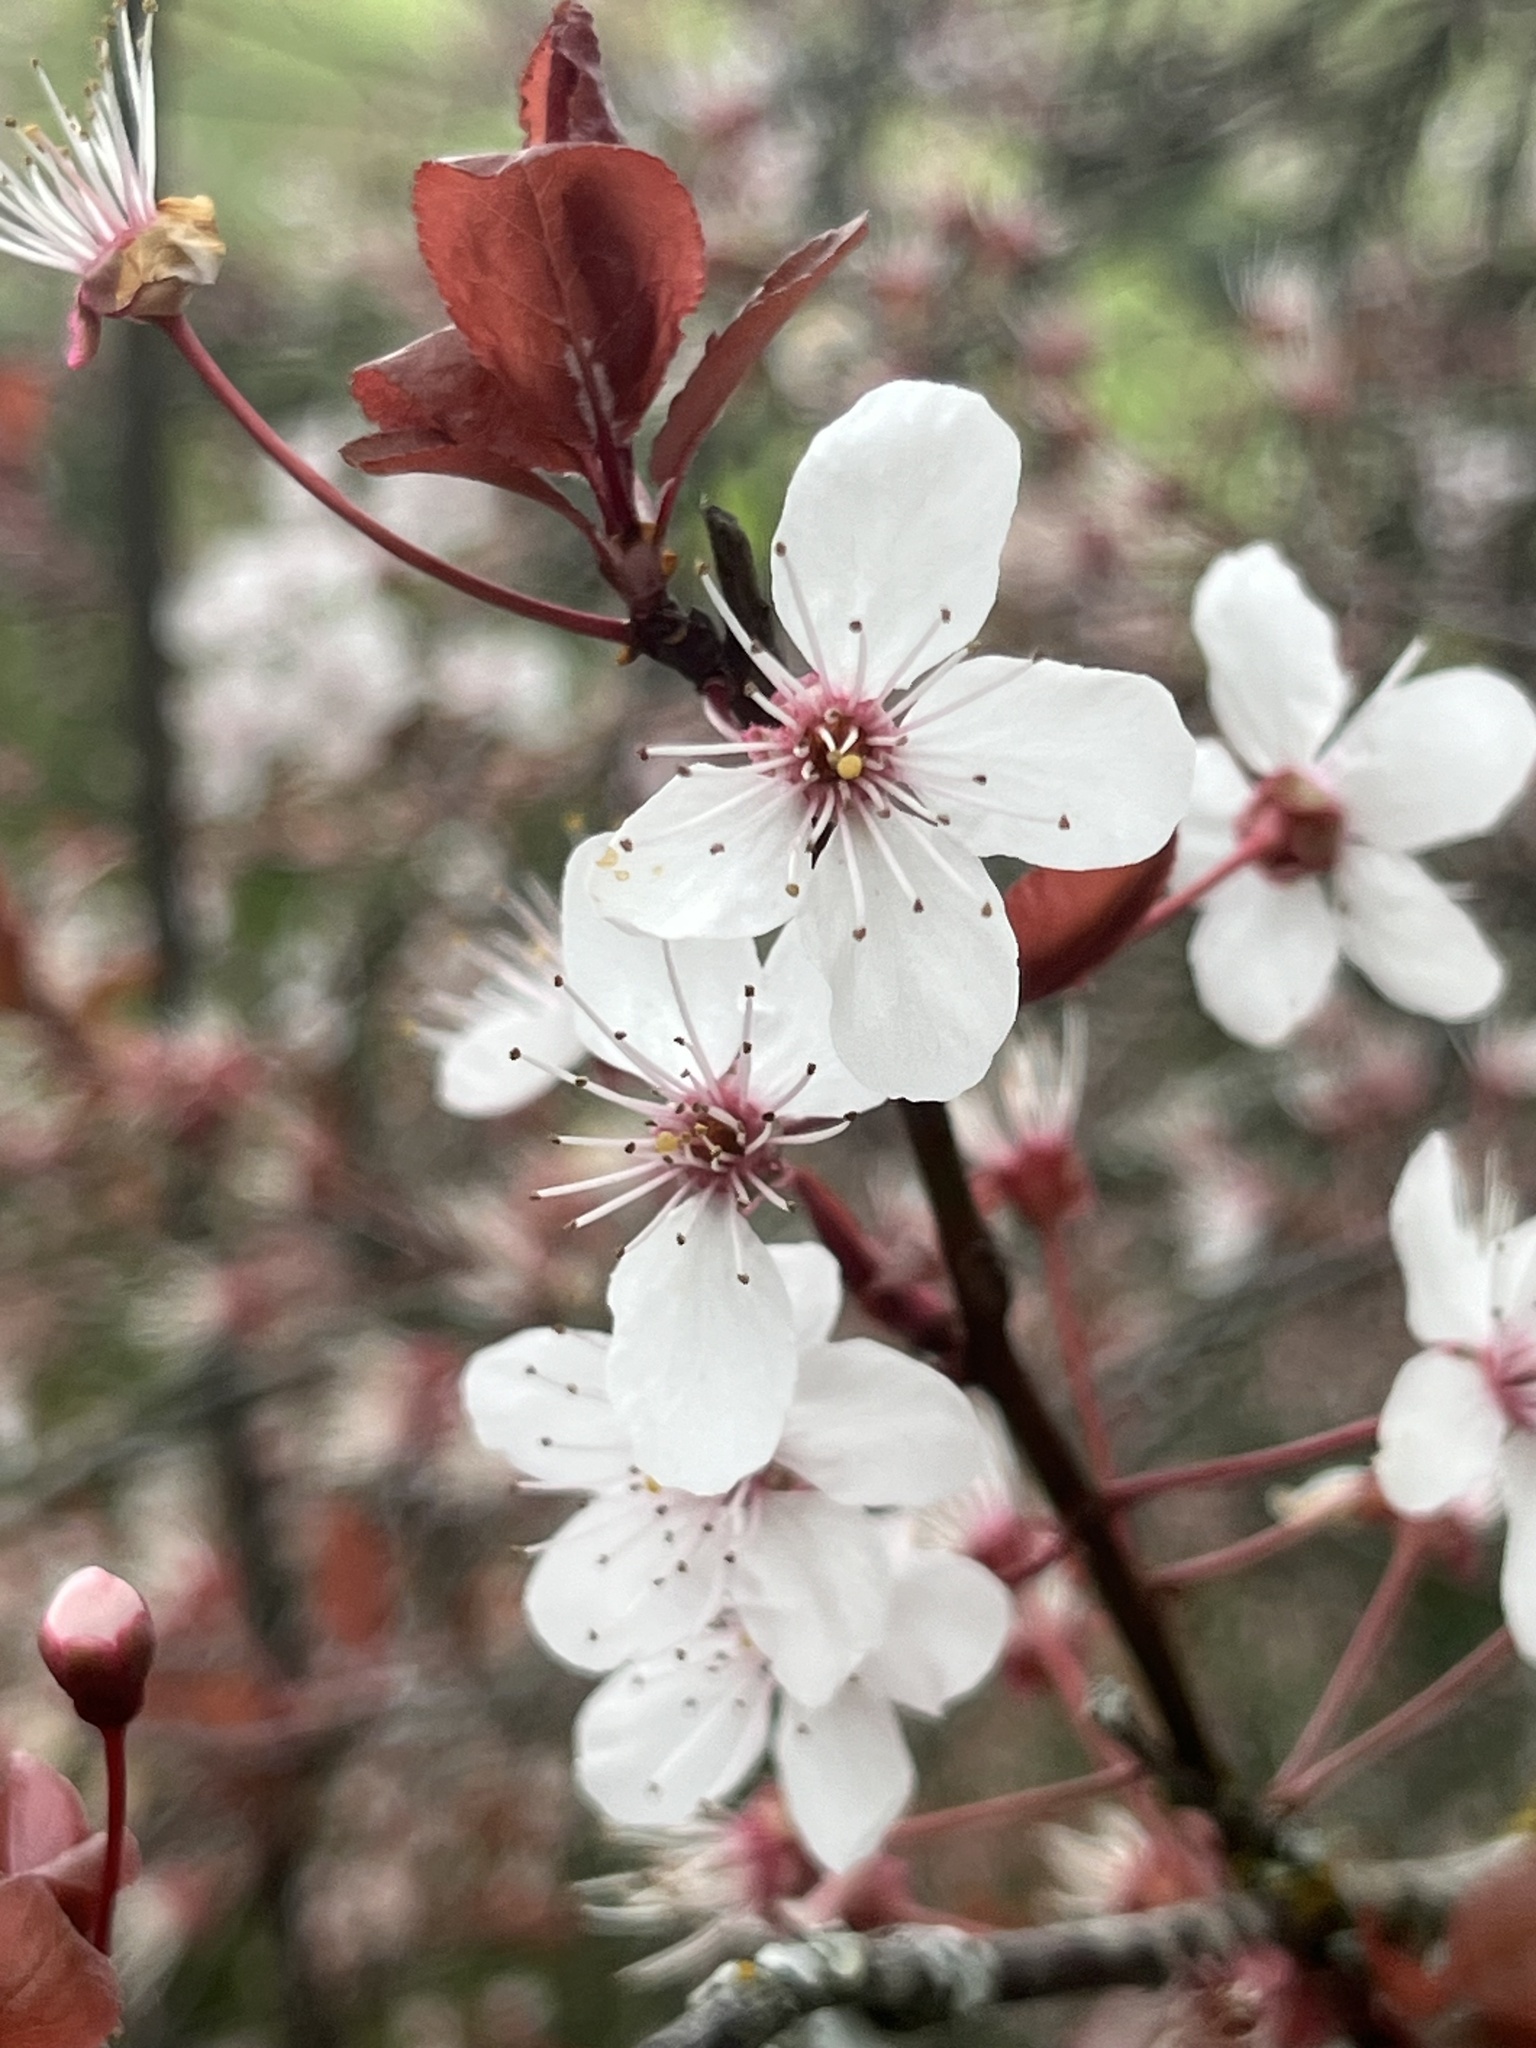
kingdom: Plantae
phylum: Tracheophyta
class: Magnoliopsida
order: Rosales
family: Rosaceae
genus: Prunus
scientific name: Prunus cerasifera
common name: Cherry plum
